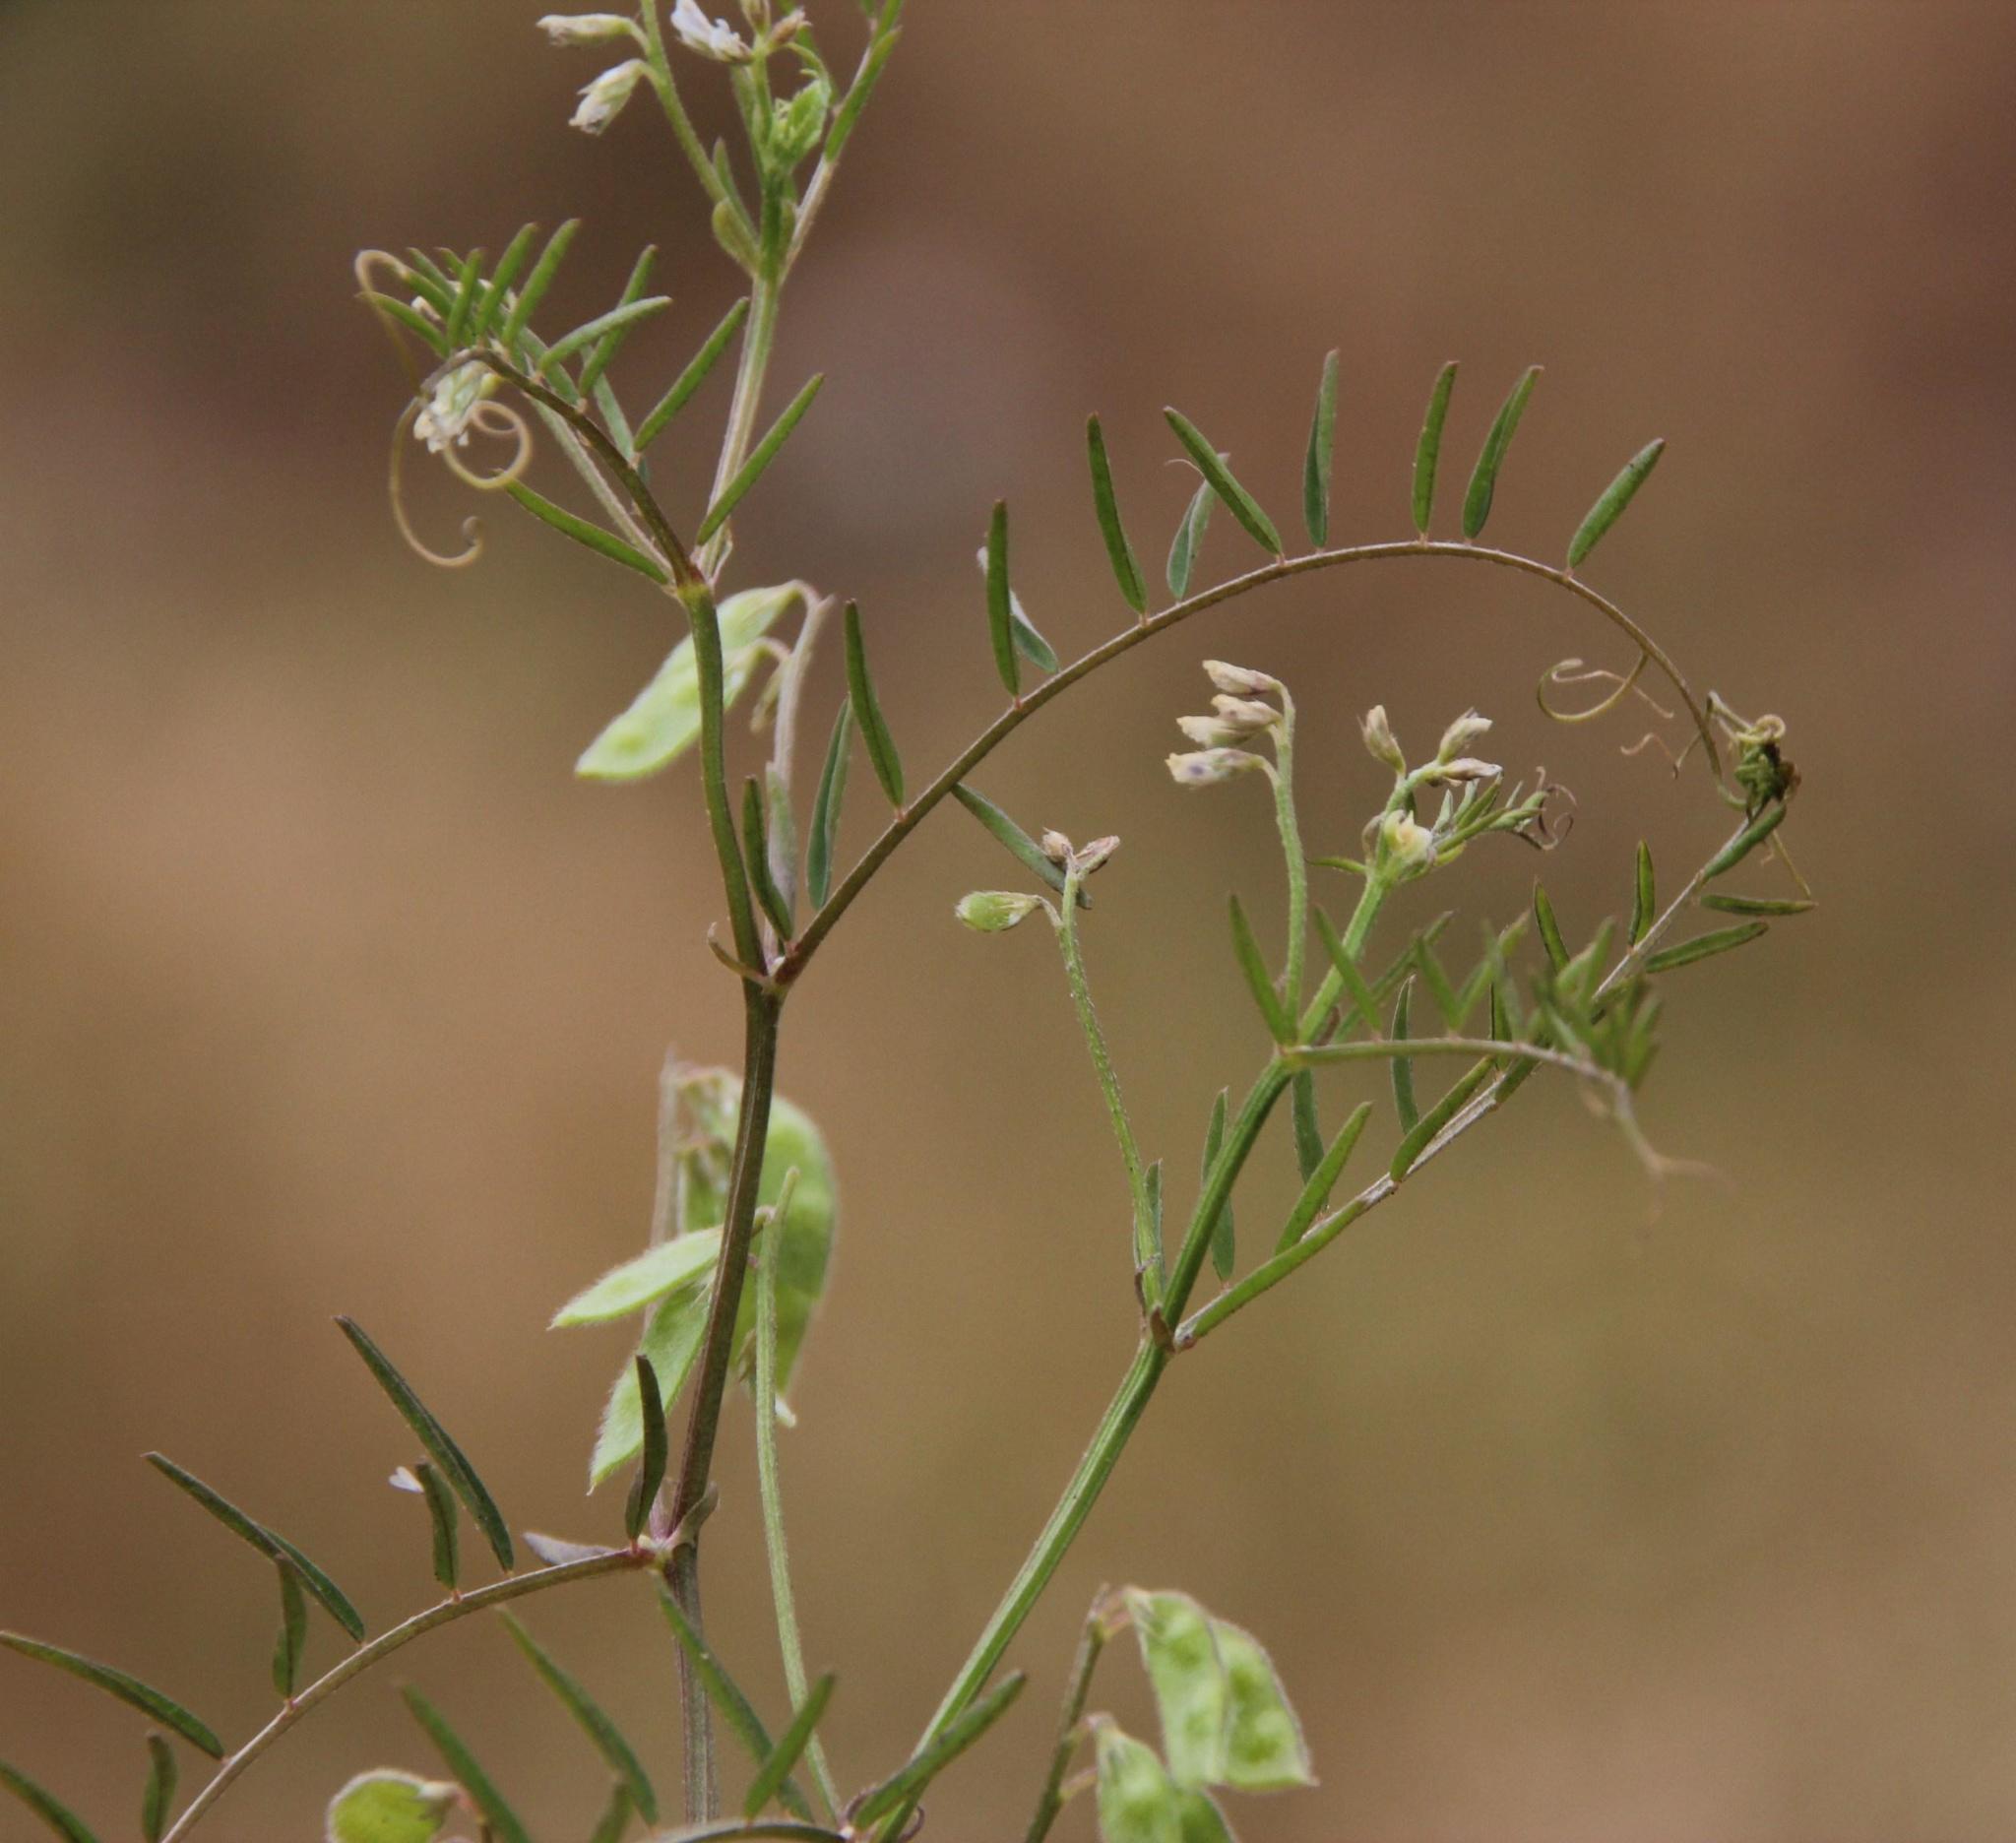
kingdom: Plantae
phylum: Tracheophyta
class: Magnoliopsida
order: Fabales
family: Fabaceae
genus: Vicia
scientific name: Vicia hirsuta
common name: Tiny vetch
